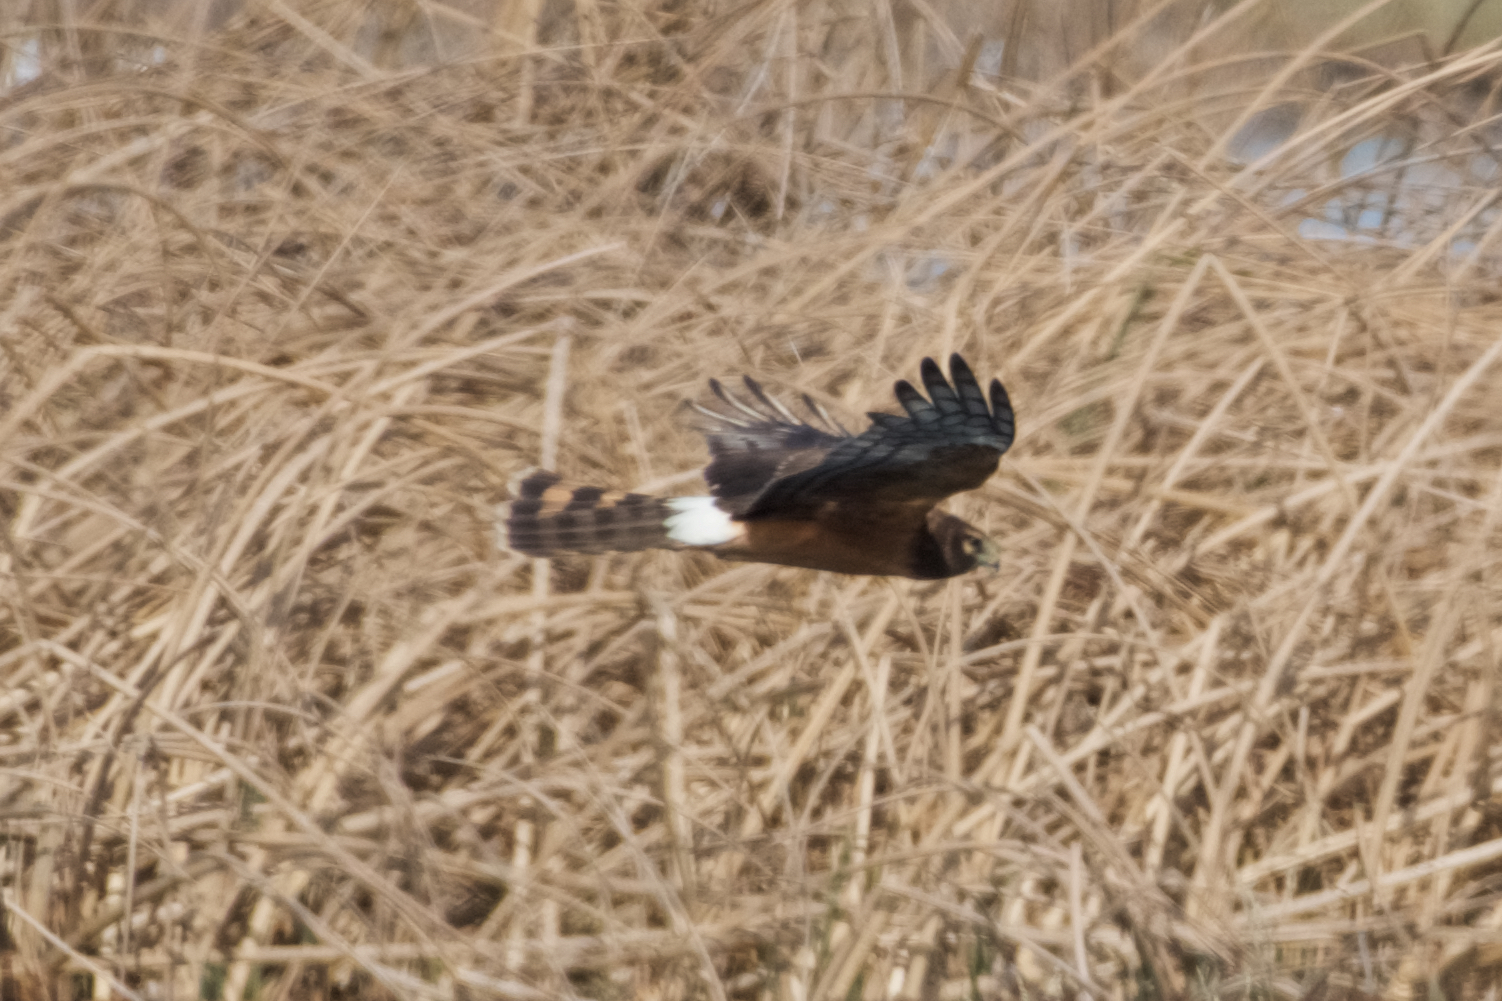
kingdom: Animalia
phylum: Chordata
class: Aves
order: Accipitriformes
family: Accipitridae
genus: Circus
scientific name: Circus cyaneus
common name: Hen harrier
